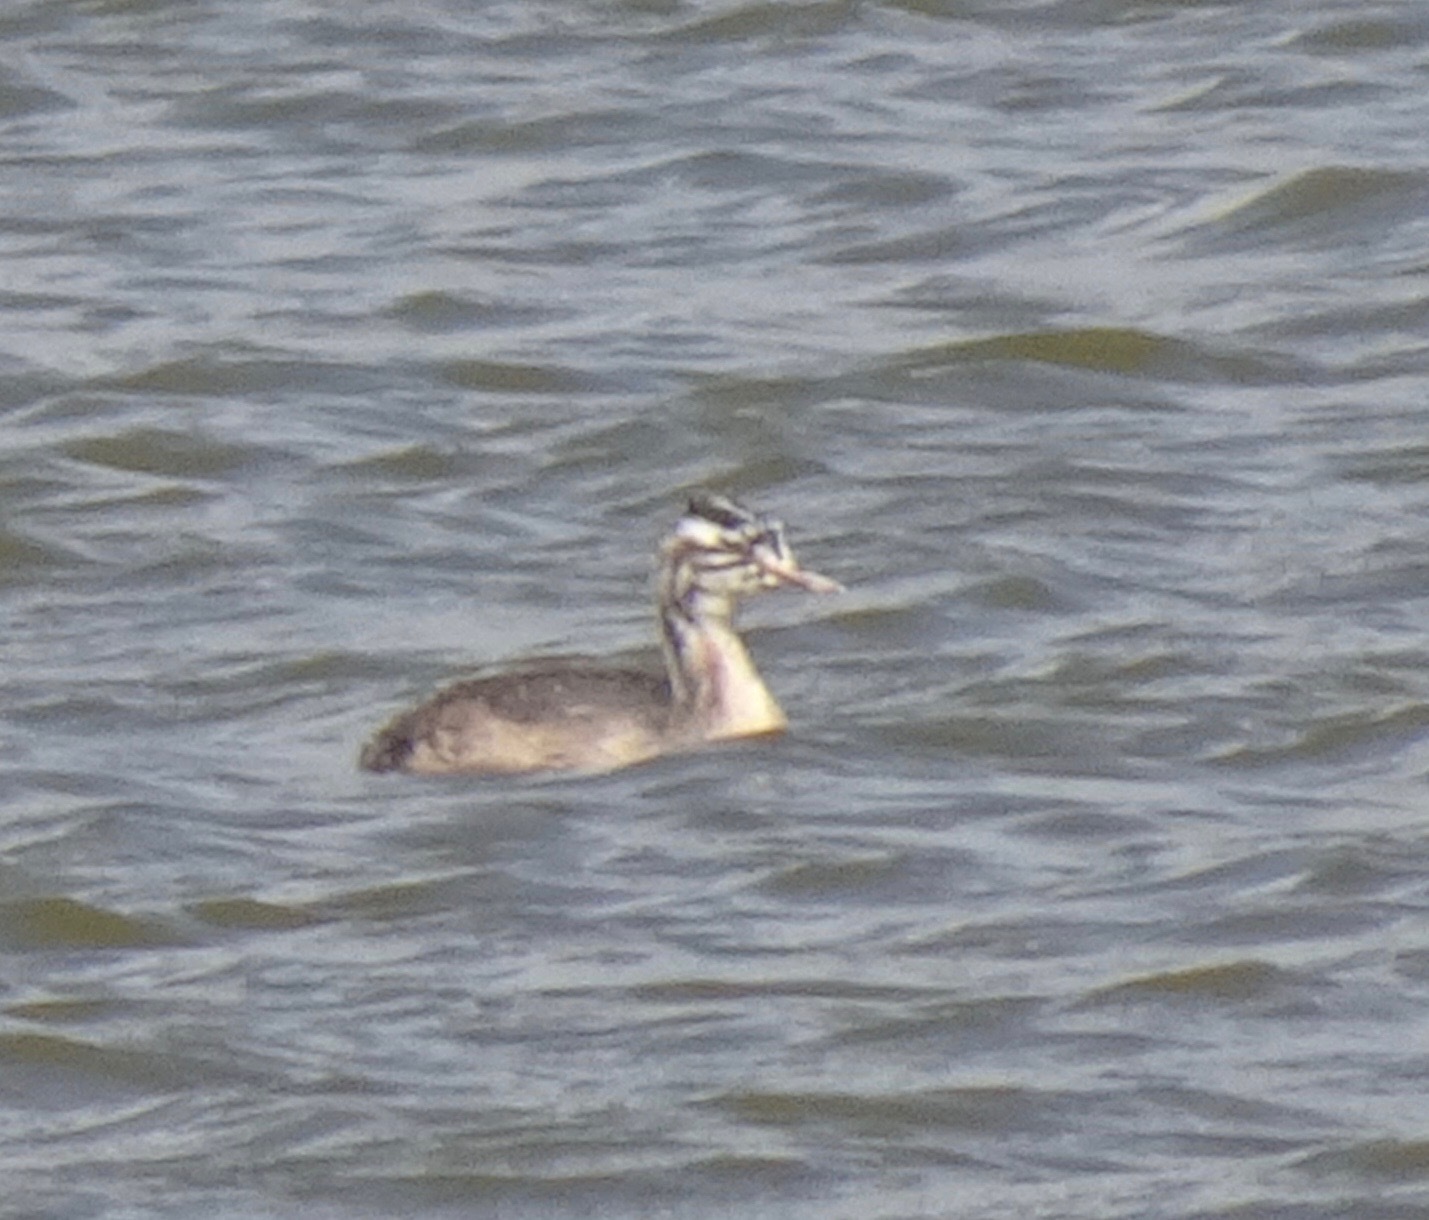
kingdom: Animalia
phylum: Chordata
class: Aves
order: Podicipediformes
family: Podicipedidae
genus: Podiceps
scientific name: Podiceps cristatus
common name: Great crested grebe
